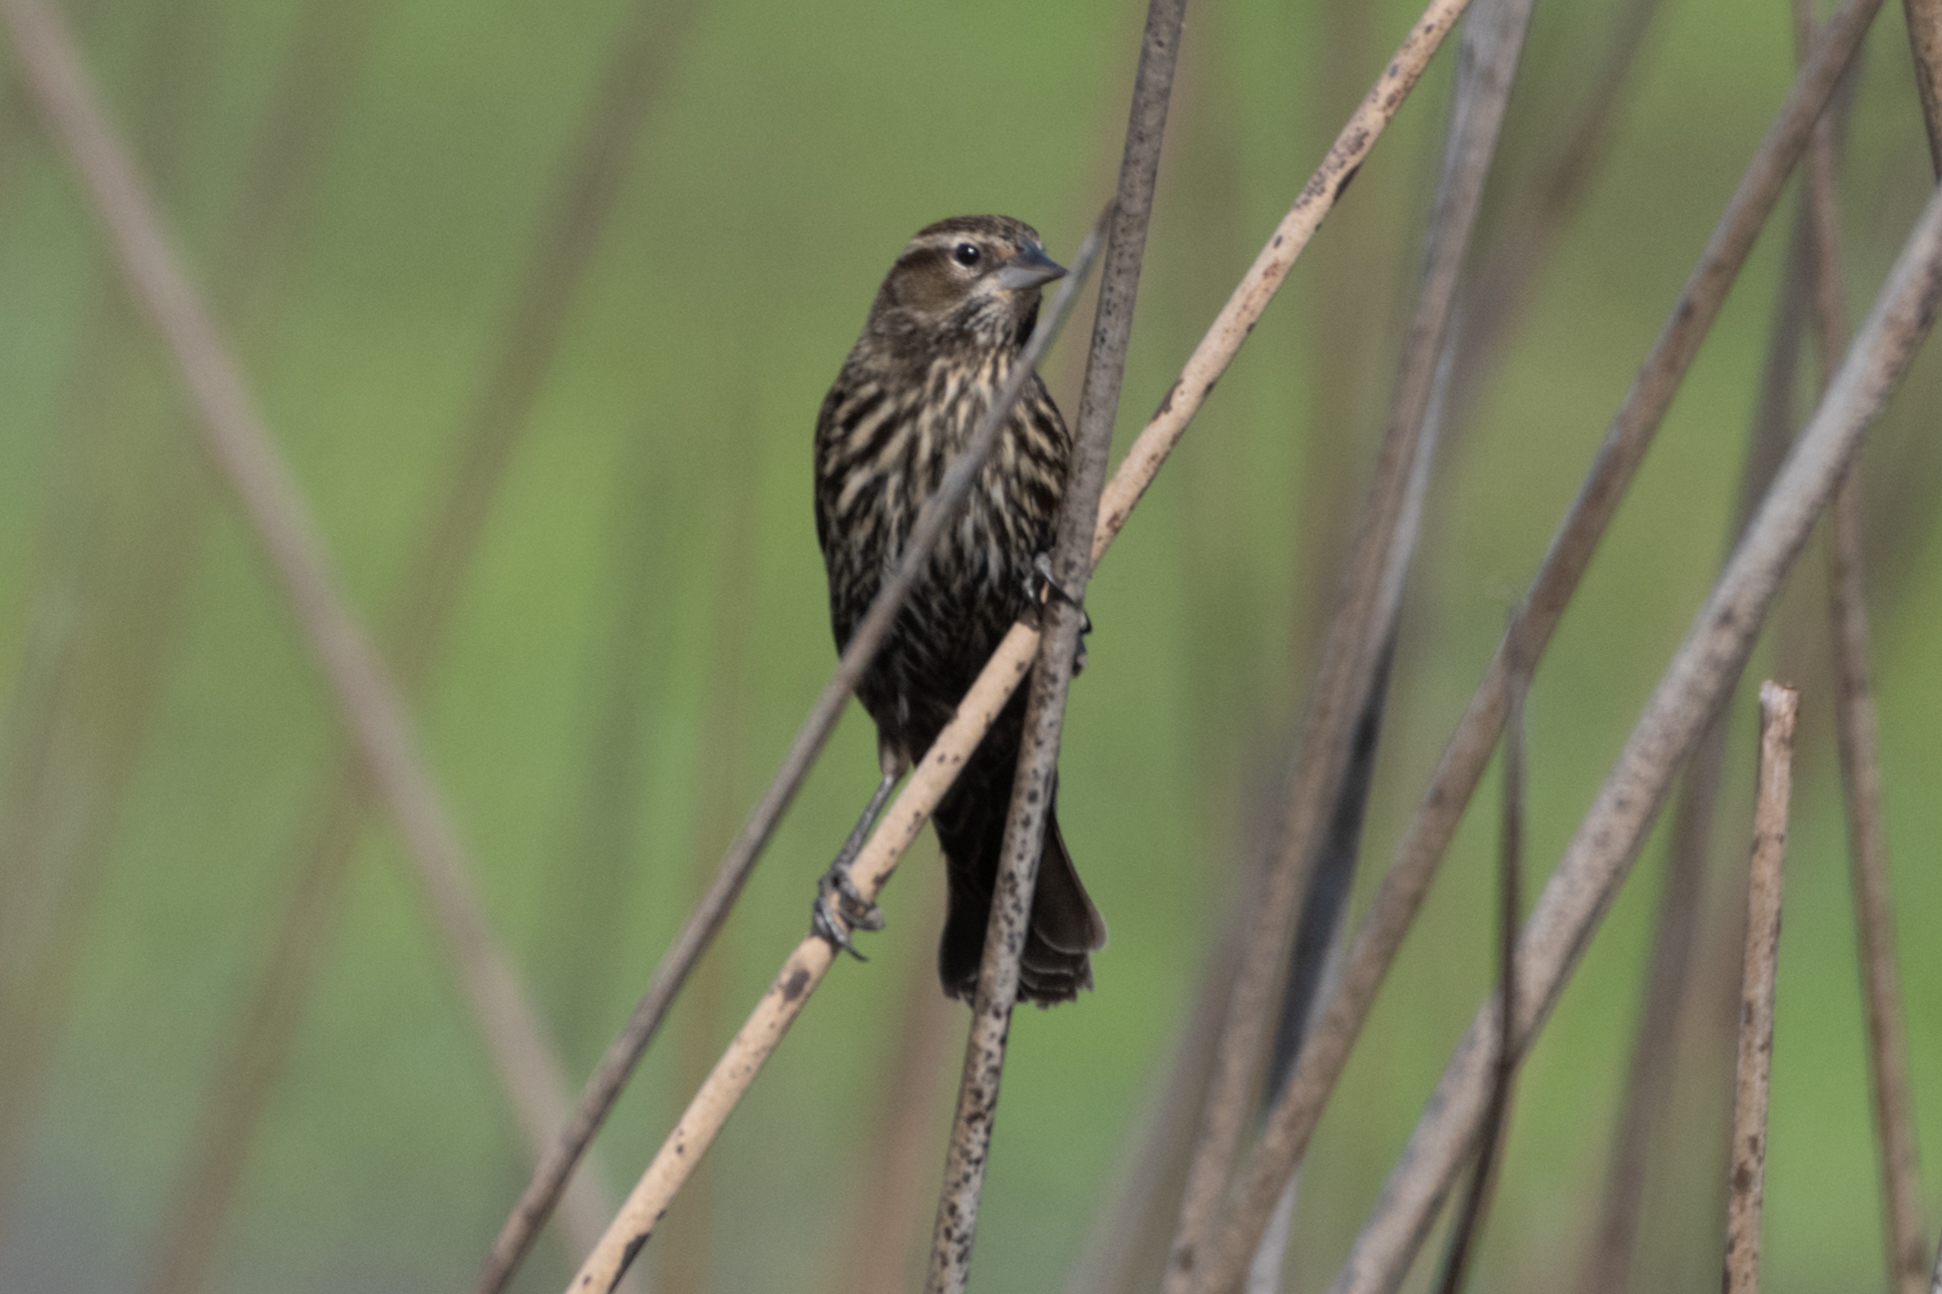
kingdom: Animalia
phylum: Chordata
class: Aves
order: Passeriformes
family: Icteridae
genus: Agelaius
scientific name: Agelaius phoeniceus
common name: Red-winged blackbird
